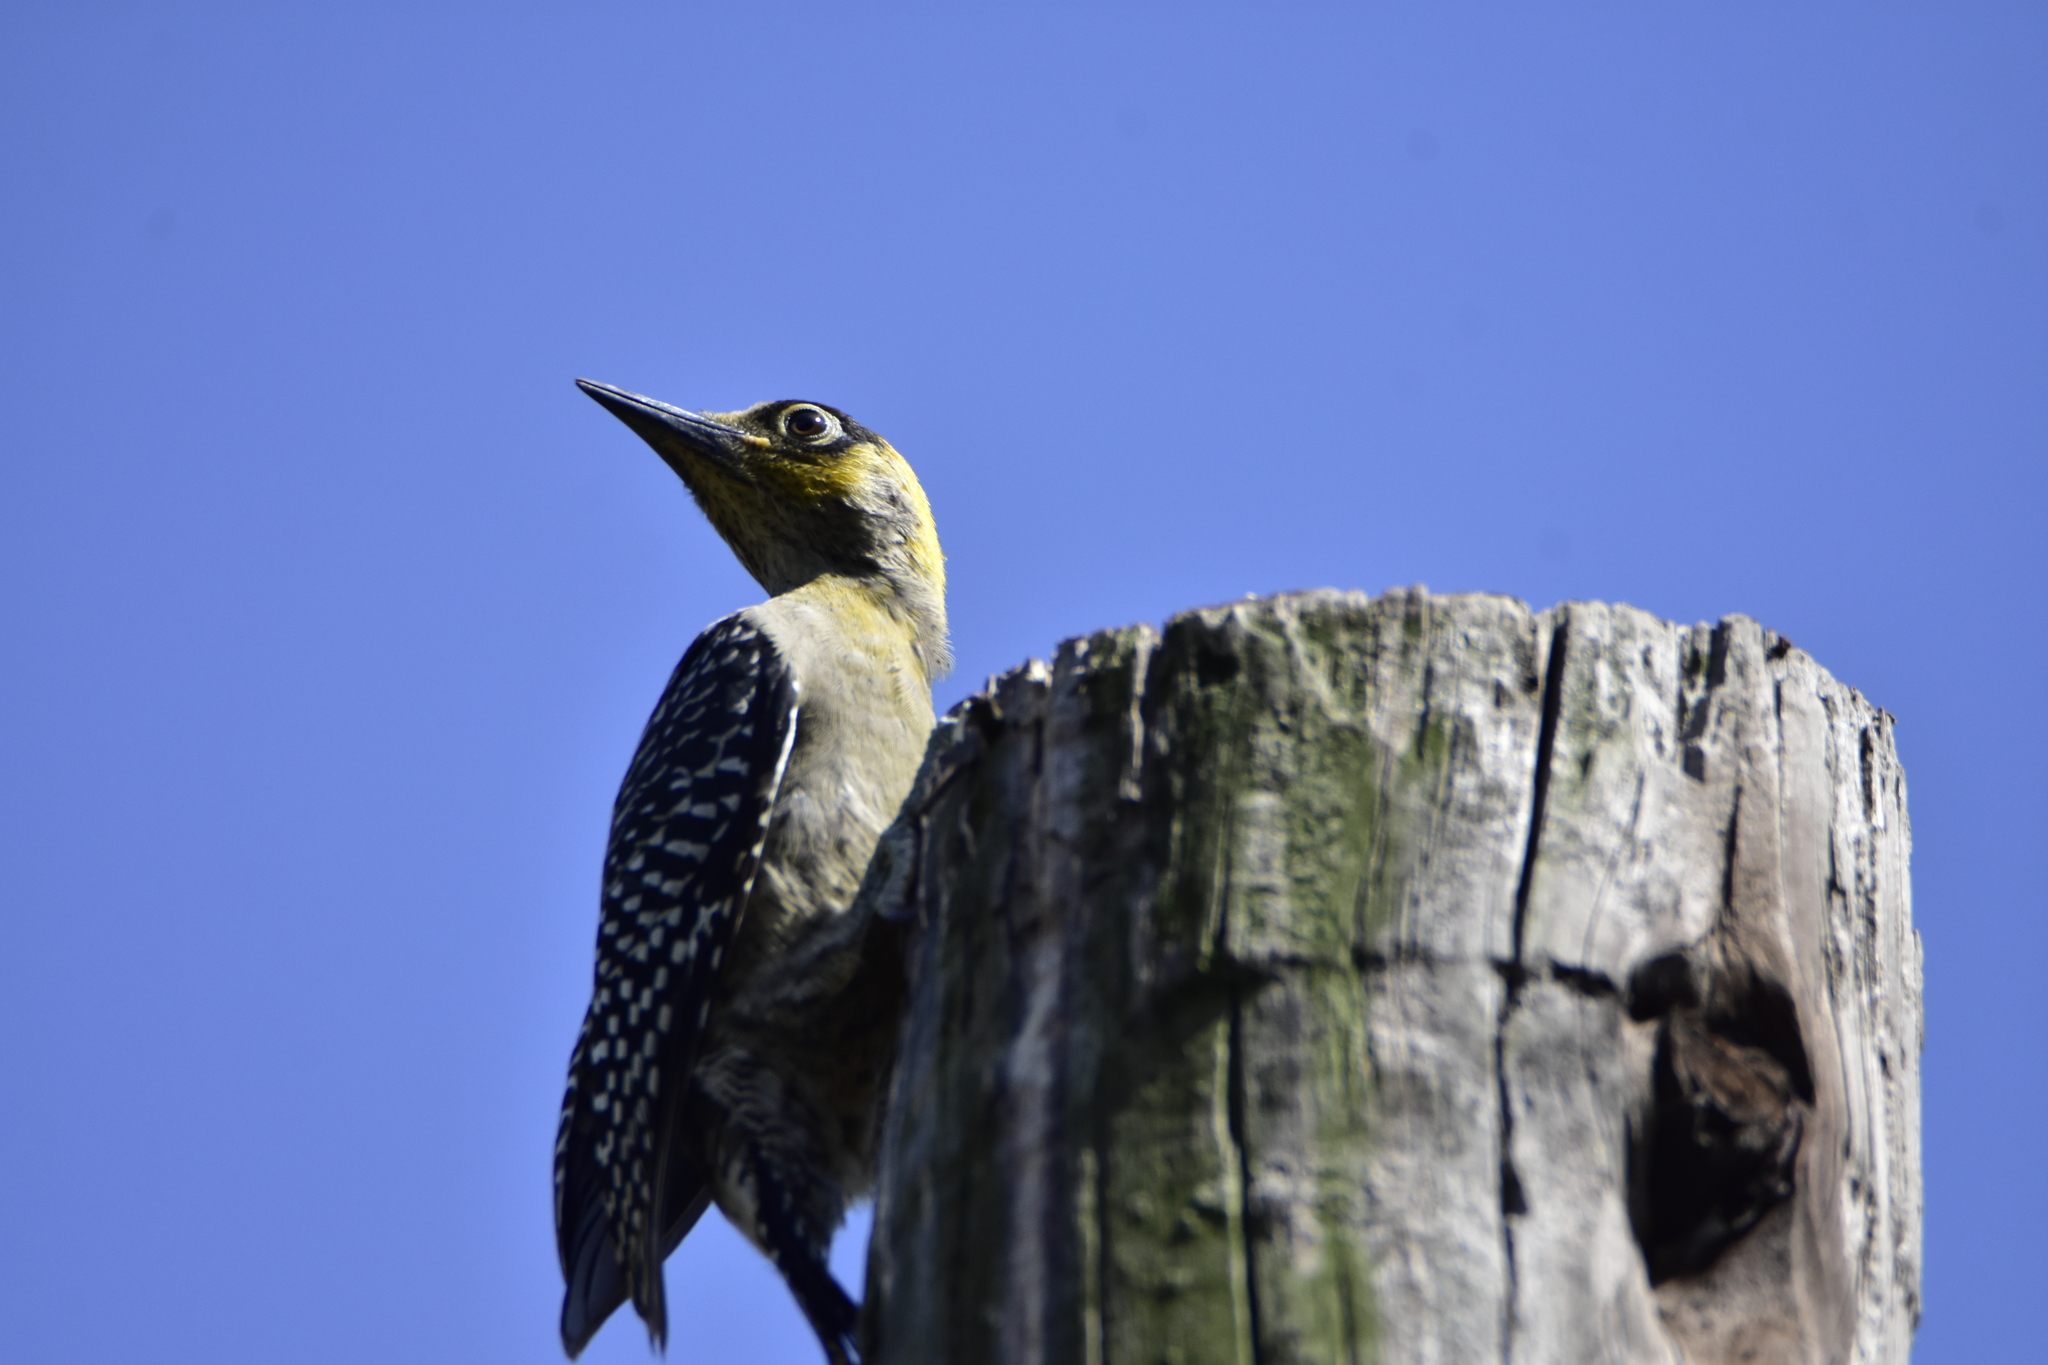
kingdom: Animalia
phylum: Chordata
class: Aves
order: Piciformes
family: Picidae
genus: Melanerpes
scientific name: Melanerpes chrysogenys
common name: Golden-cheeked woodpecker
